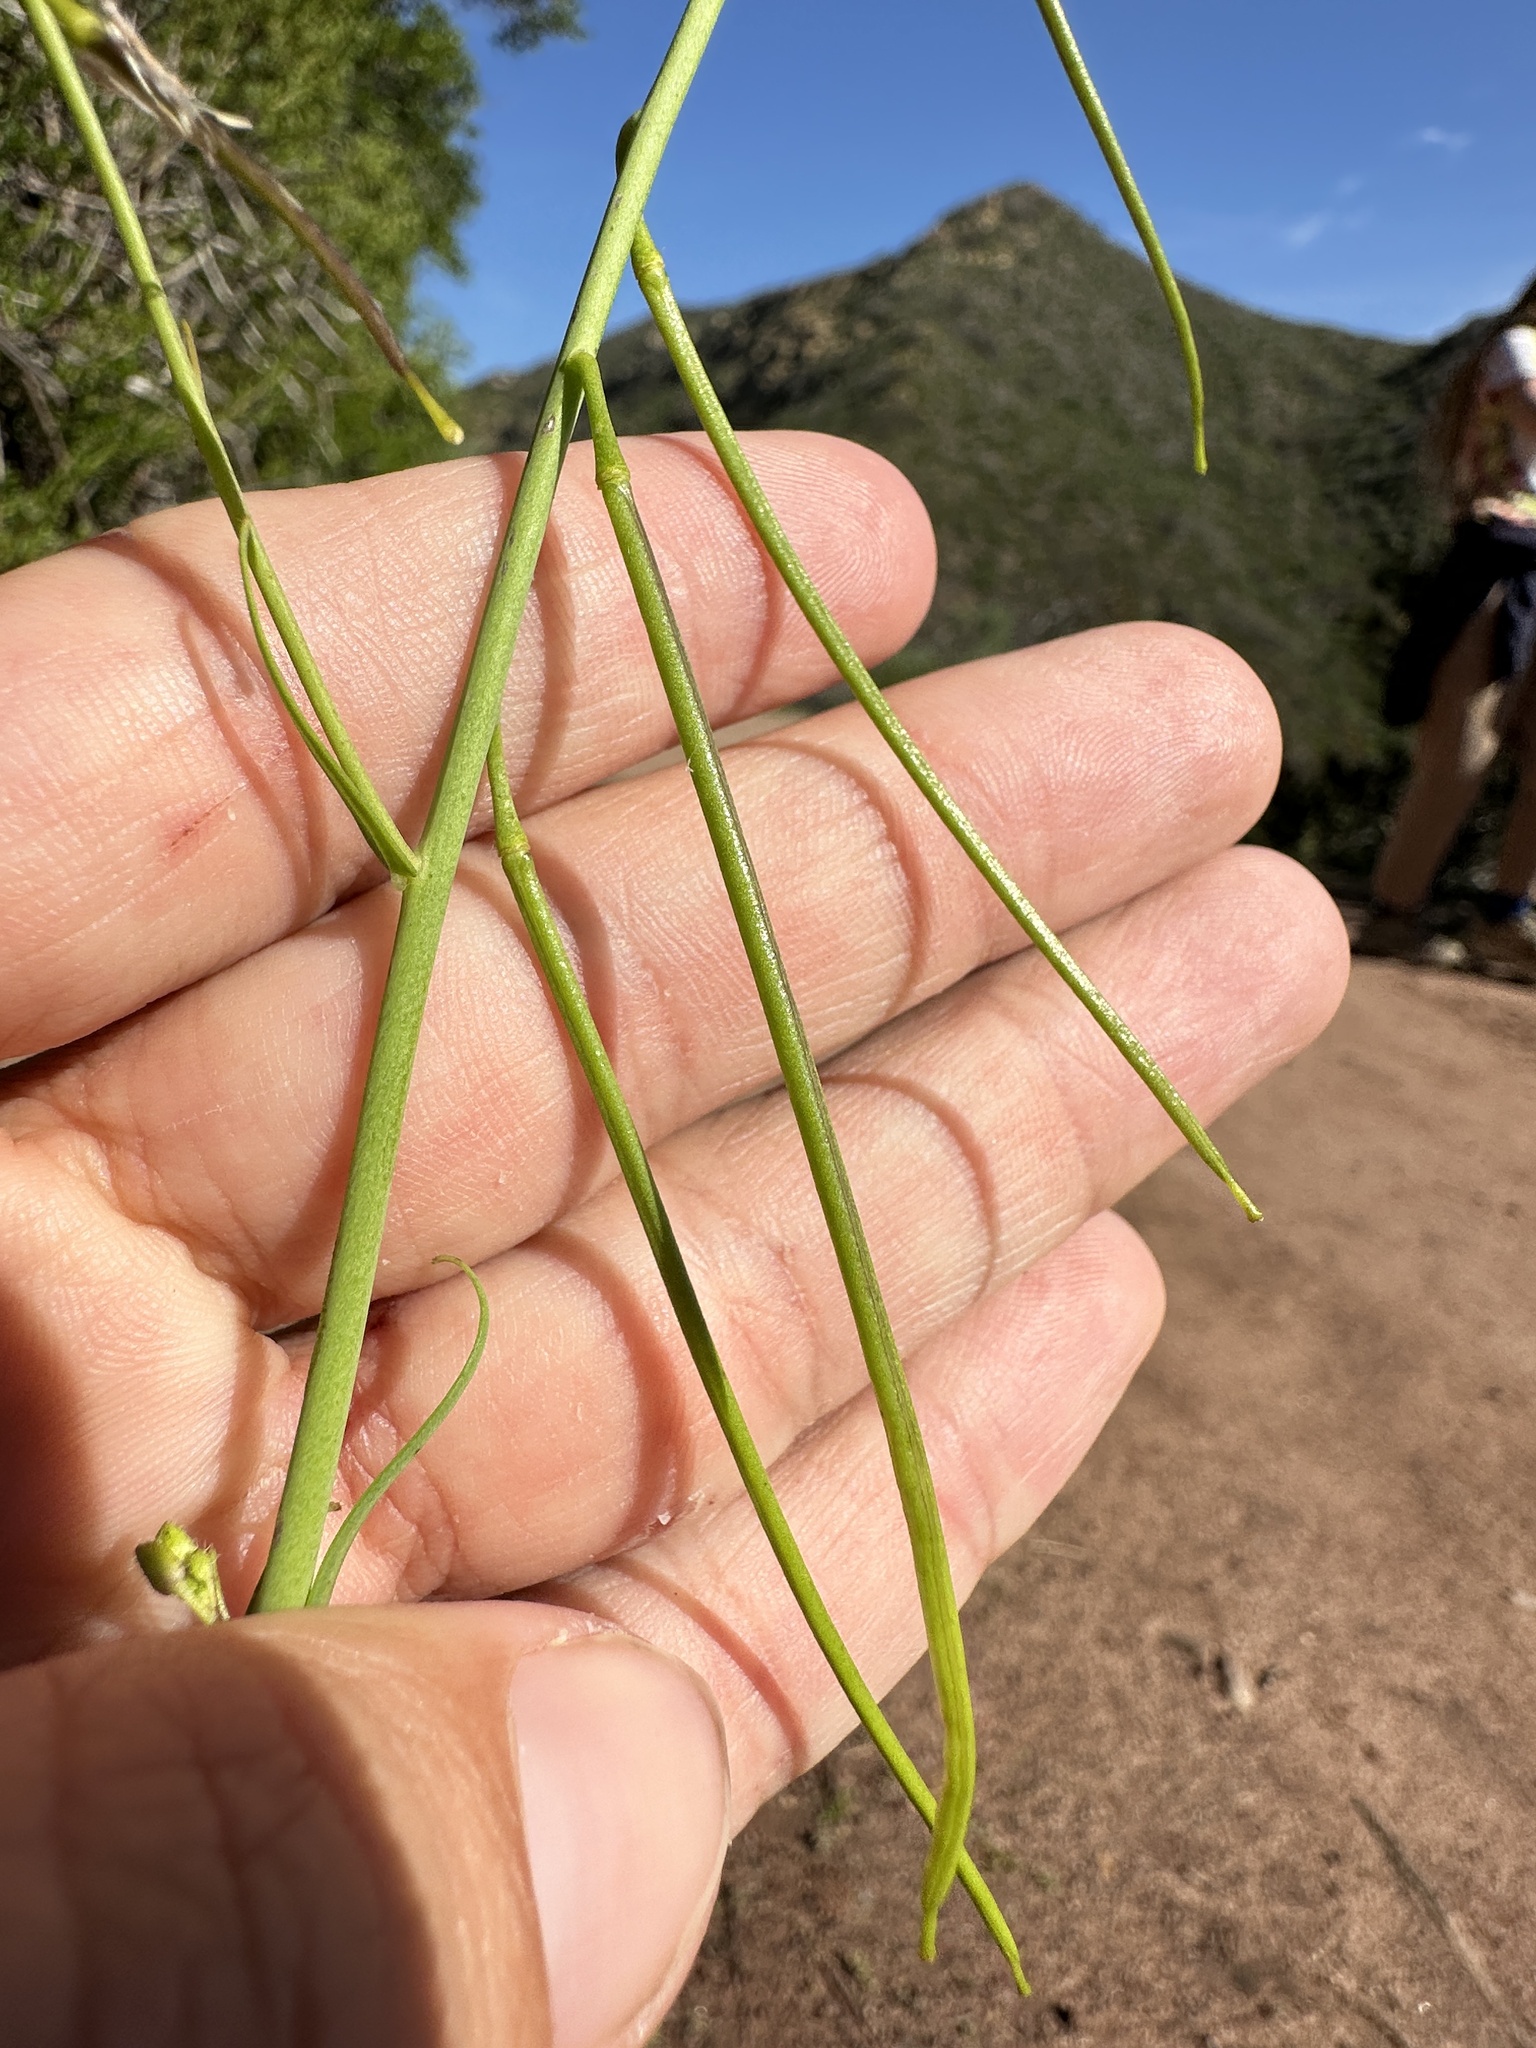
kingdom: Plantae
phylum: Tracheophyta
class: Magnoliopsida
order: Brassicales
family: Brassicaceae
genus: Streptanthus
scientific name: Streptanthus heterophyllus
